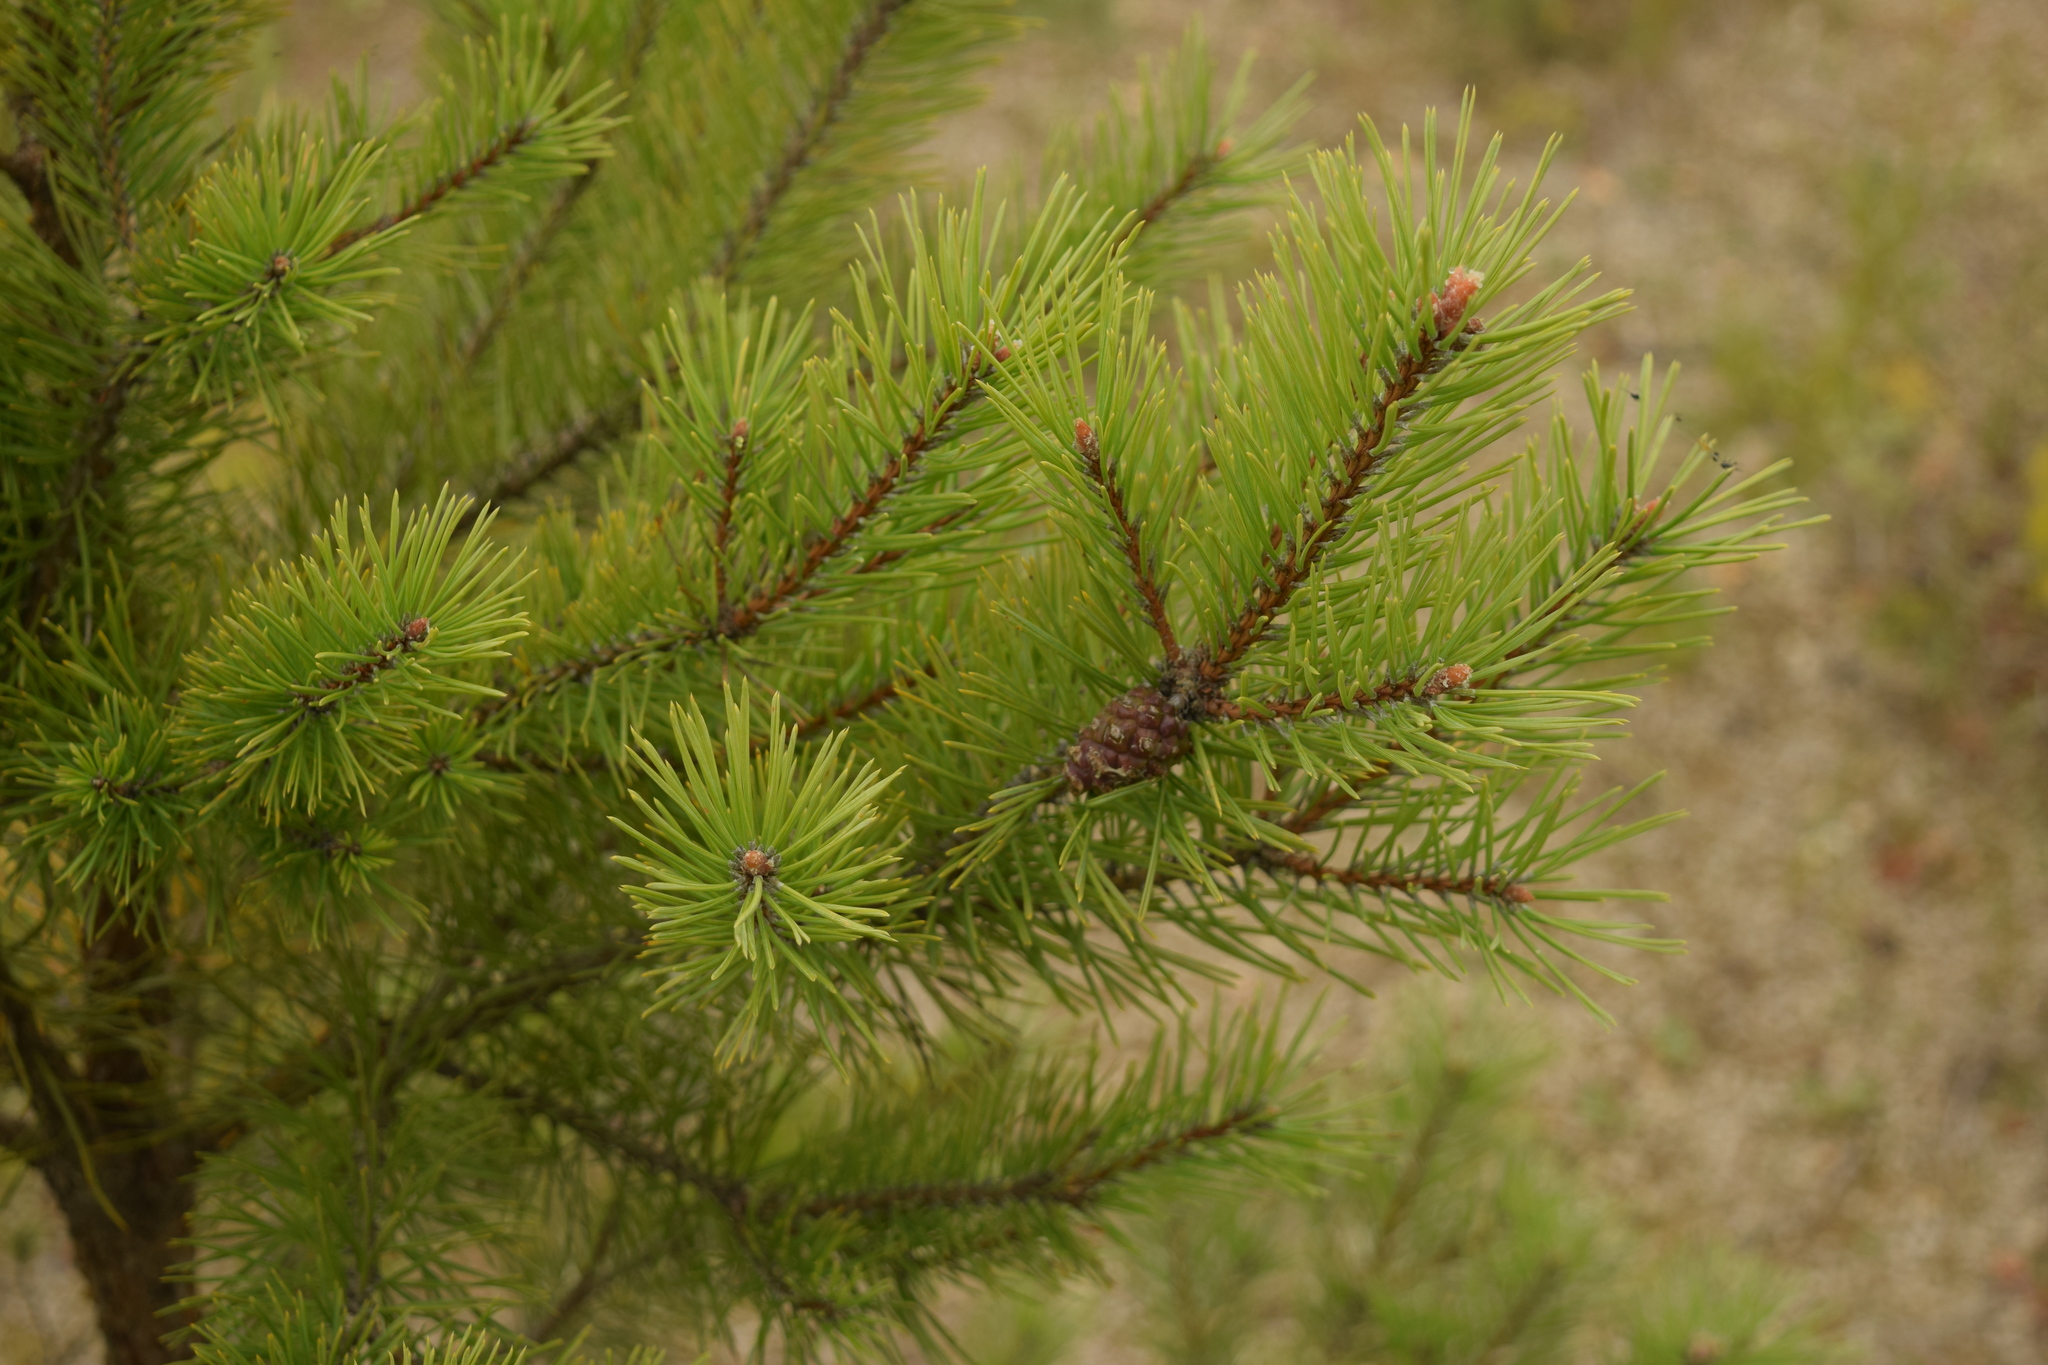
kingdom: Plantae
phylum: Tracheophyta
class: Pinopsida
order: Pinales
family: Pinaceae
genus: Pinus
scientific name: Pinus sylvestris
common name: Scots pine
